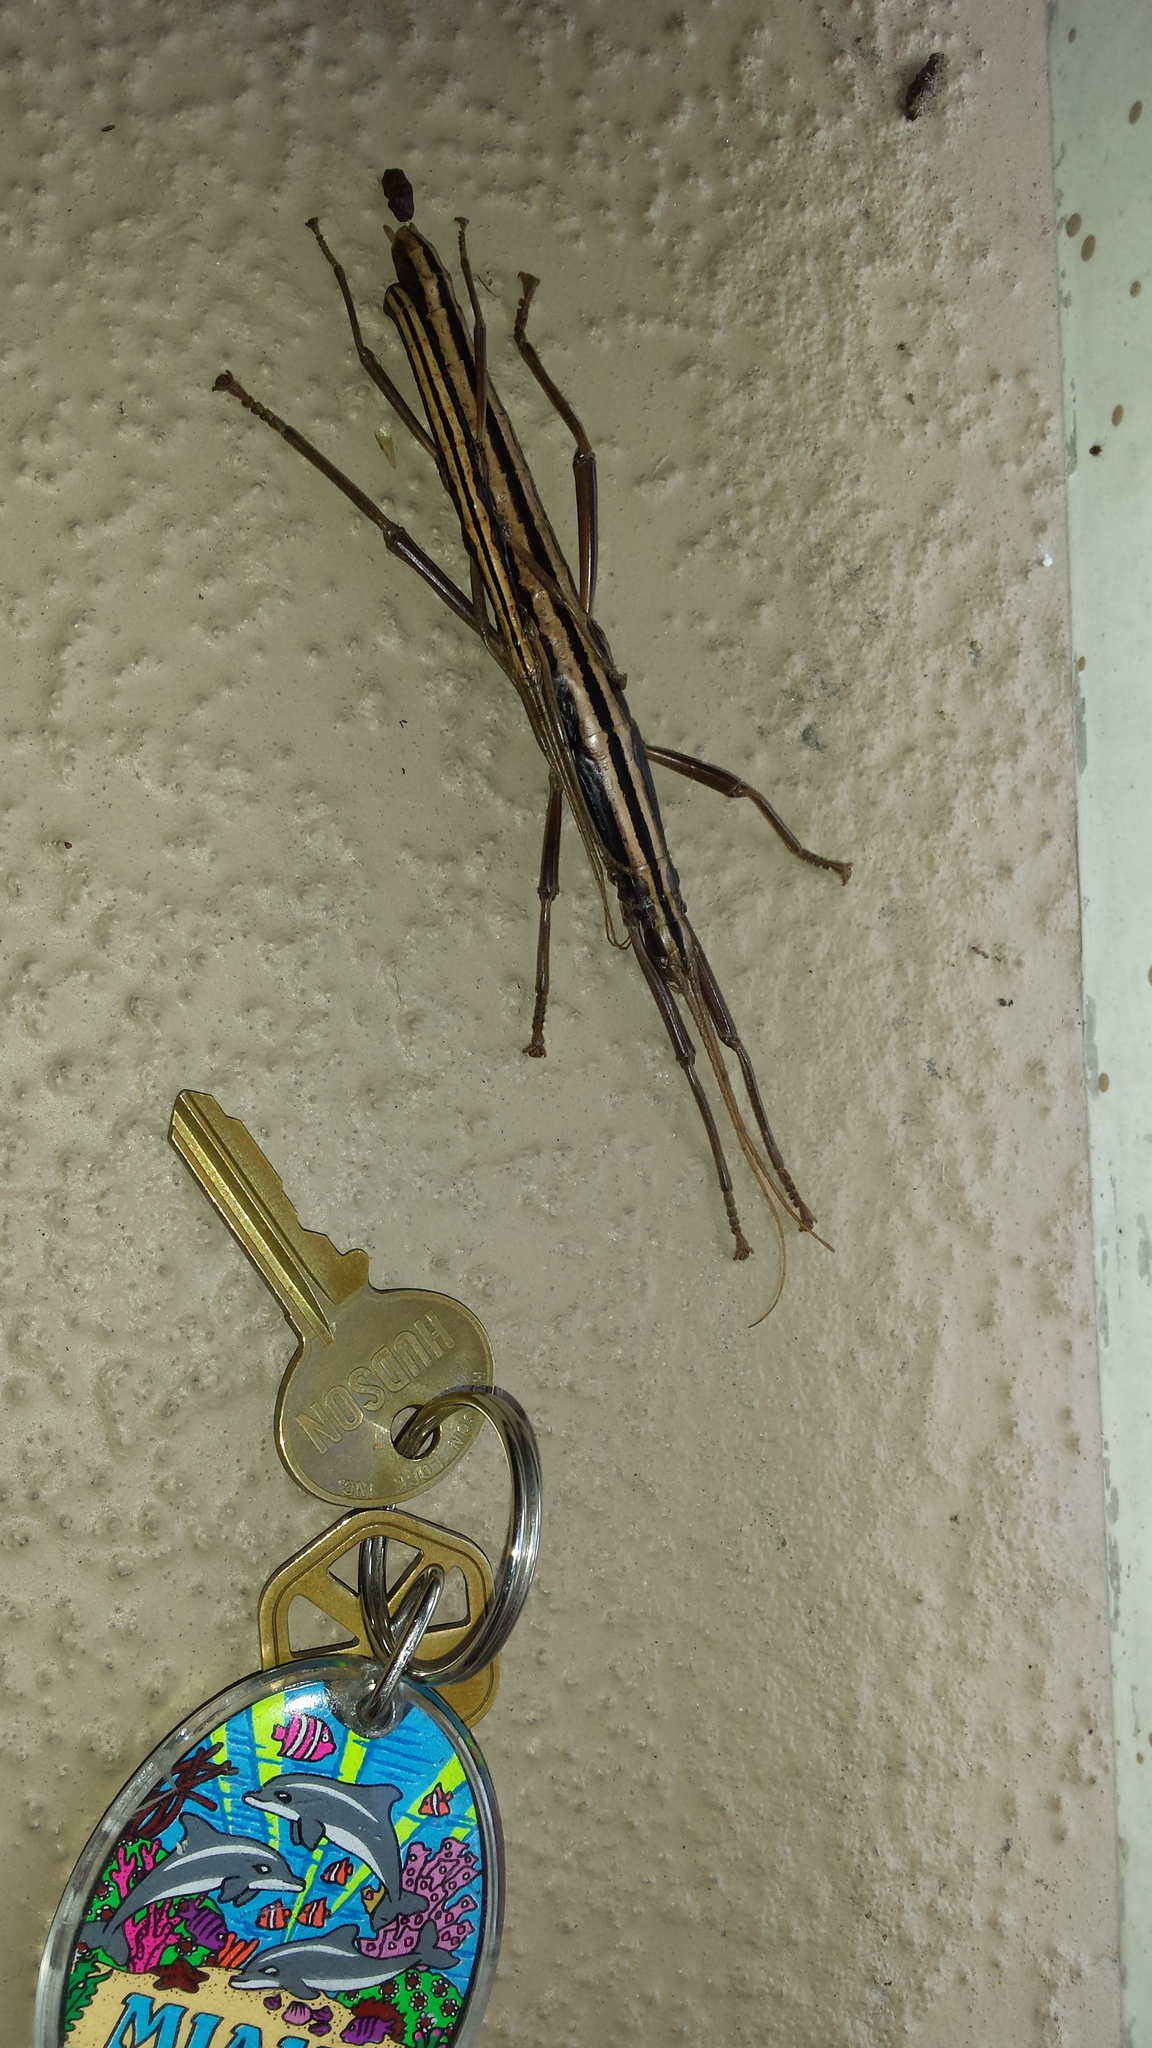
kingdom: Animalia
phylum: Arthropoda
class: Insecta
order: Phasmida
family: Pseudophasmatidae
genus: Anisomorpha
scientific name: Anisomorpha buprestoides
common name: Florida stick insect
